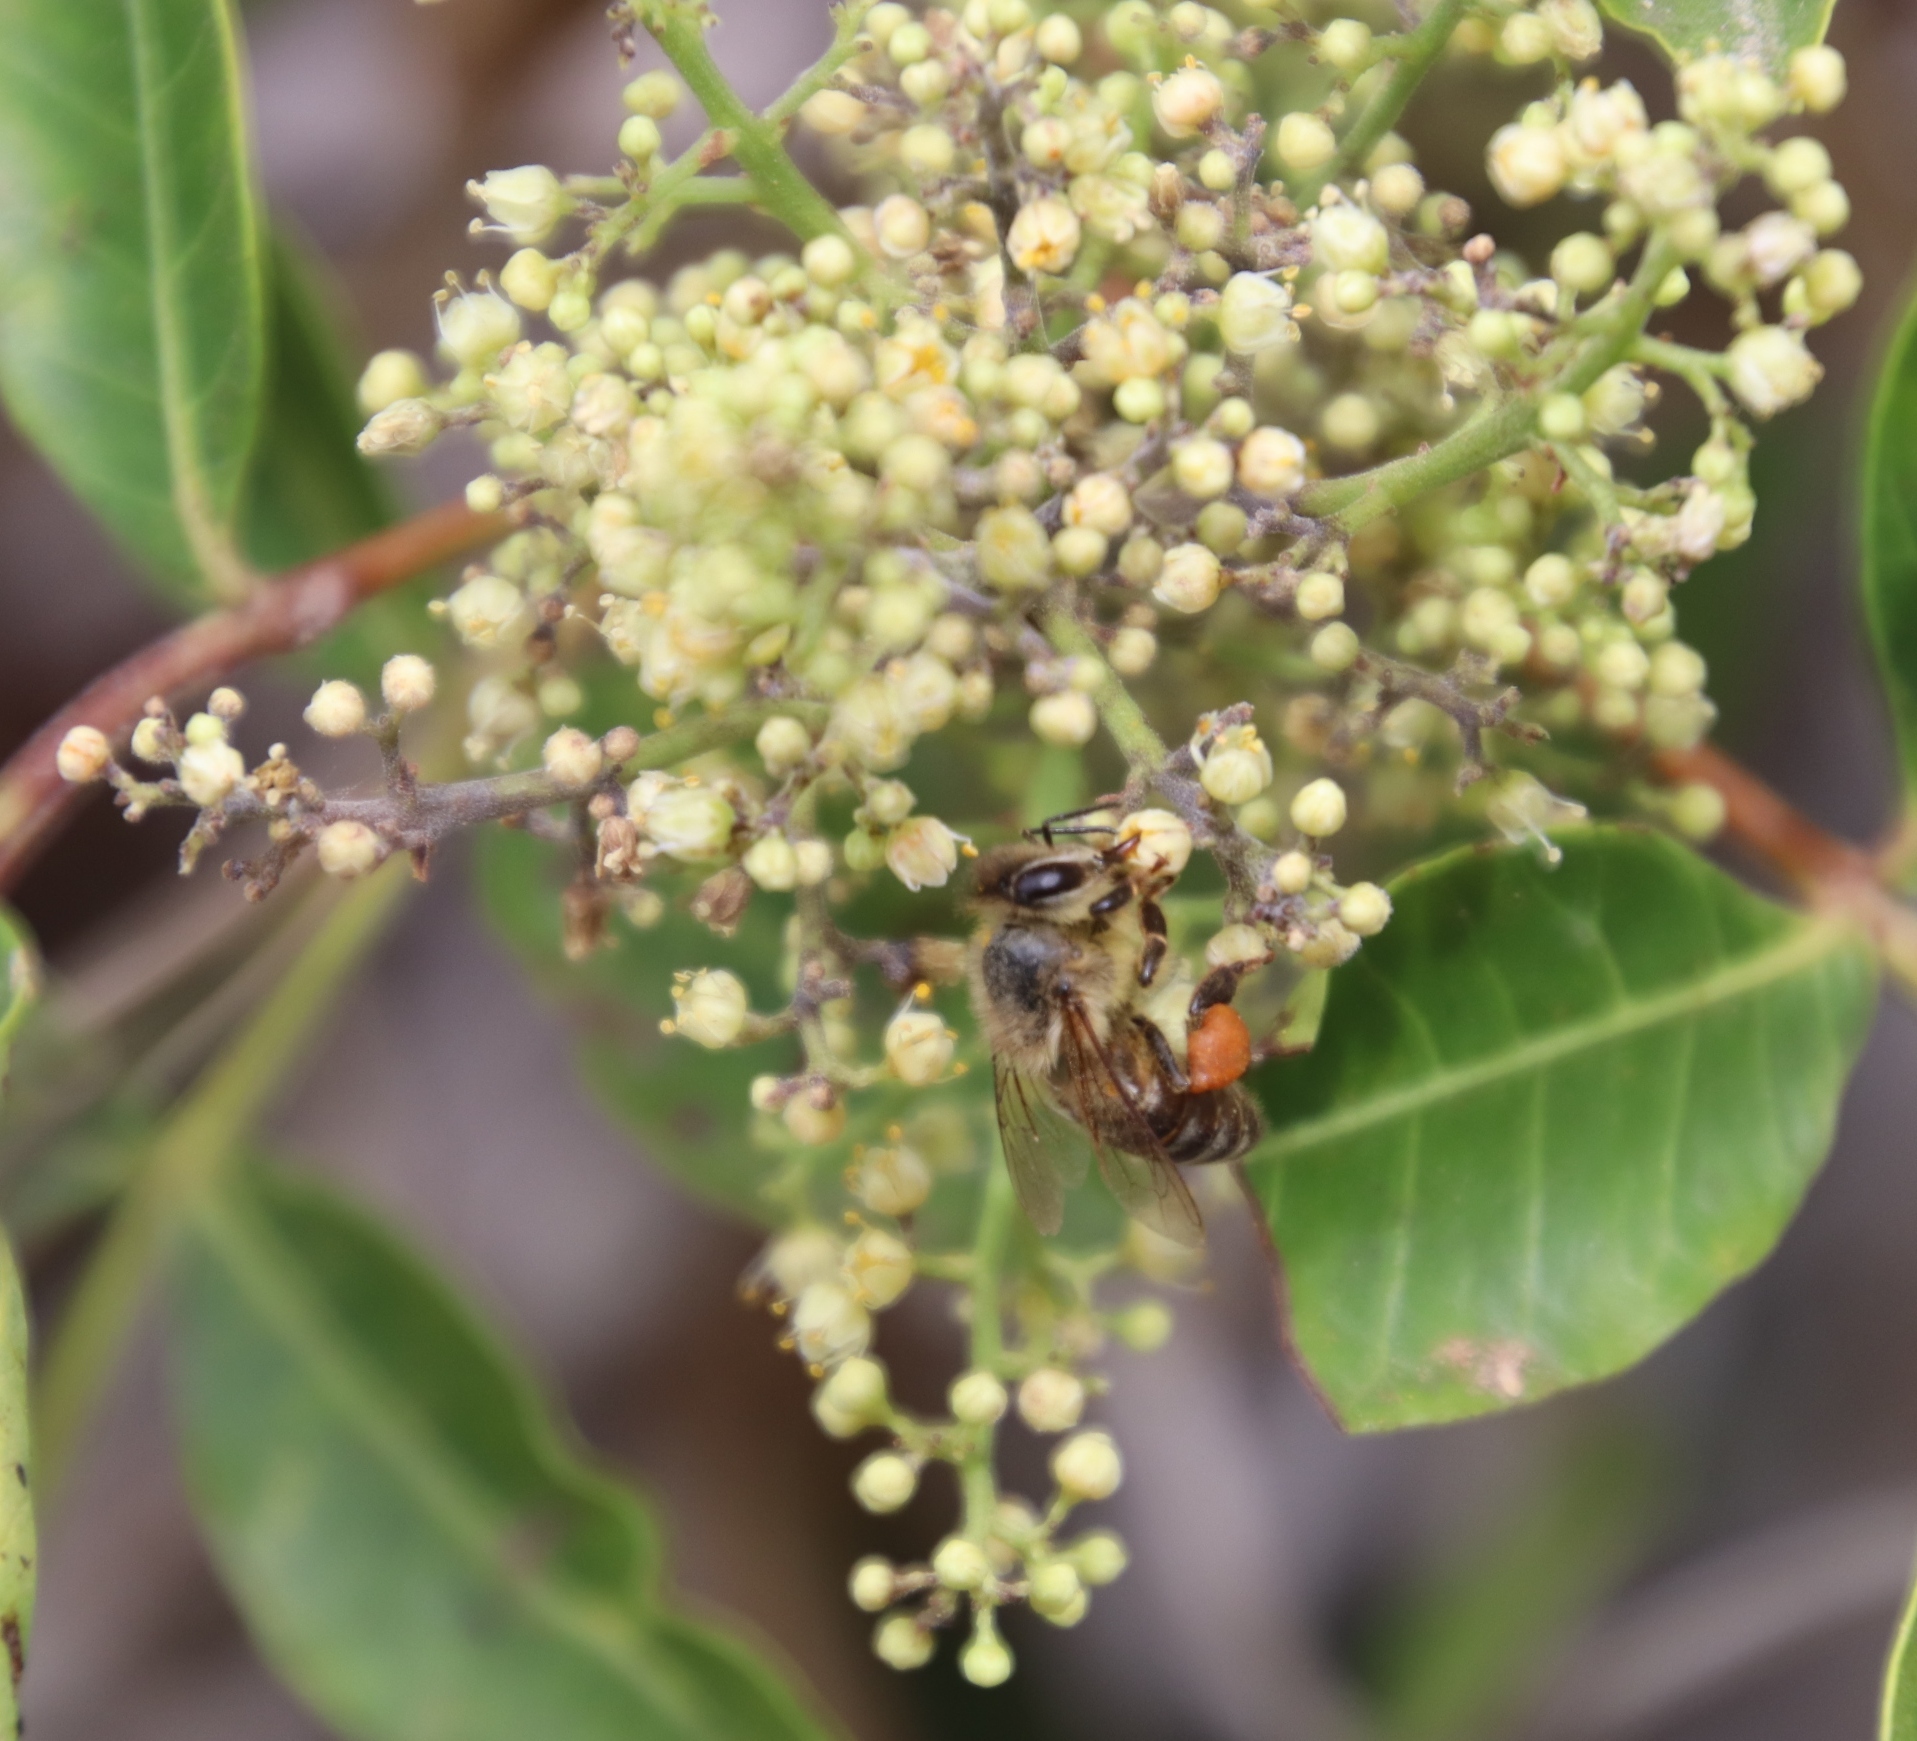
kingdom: Plantae
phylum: Tracheophyta
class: Magnoliopsida
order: Sapindales
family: Anacardiaceae
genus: Schinus
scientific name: Schinus terebinthifolia
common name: Brazilian peppertree
